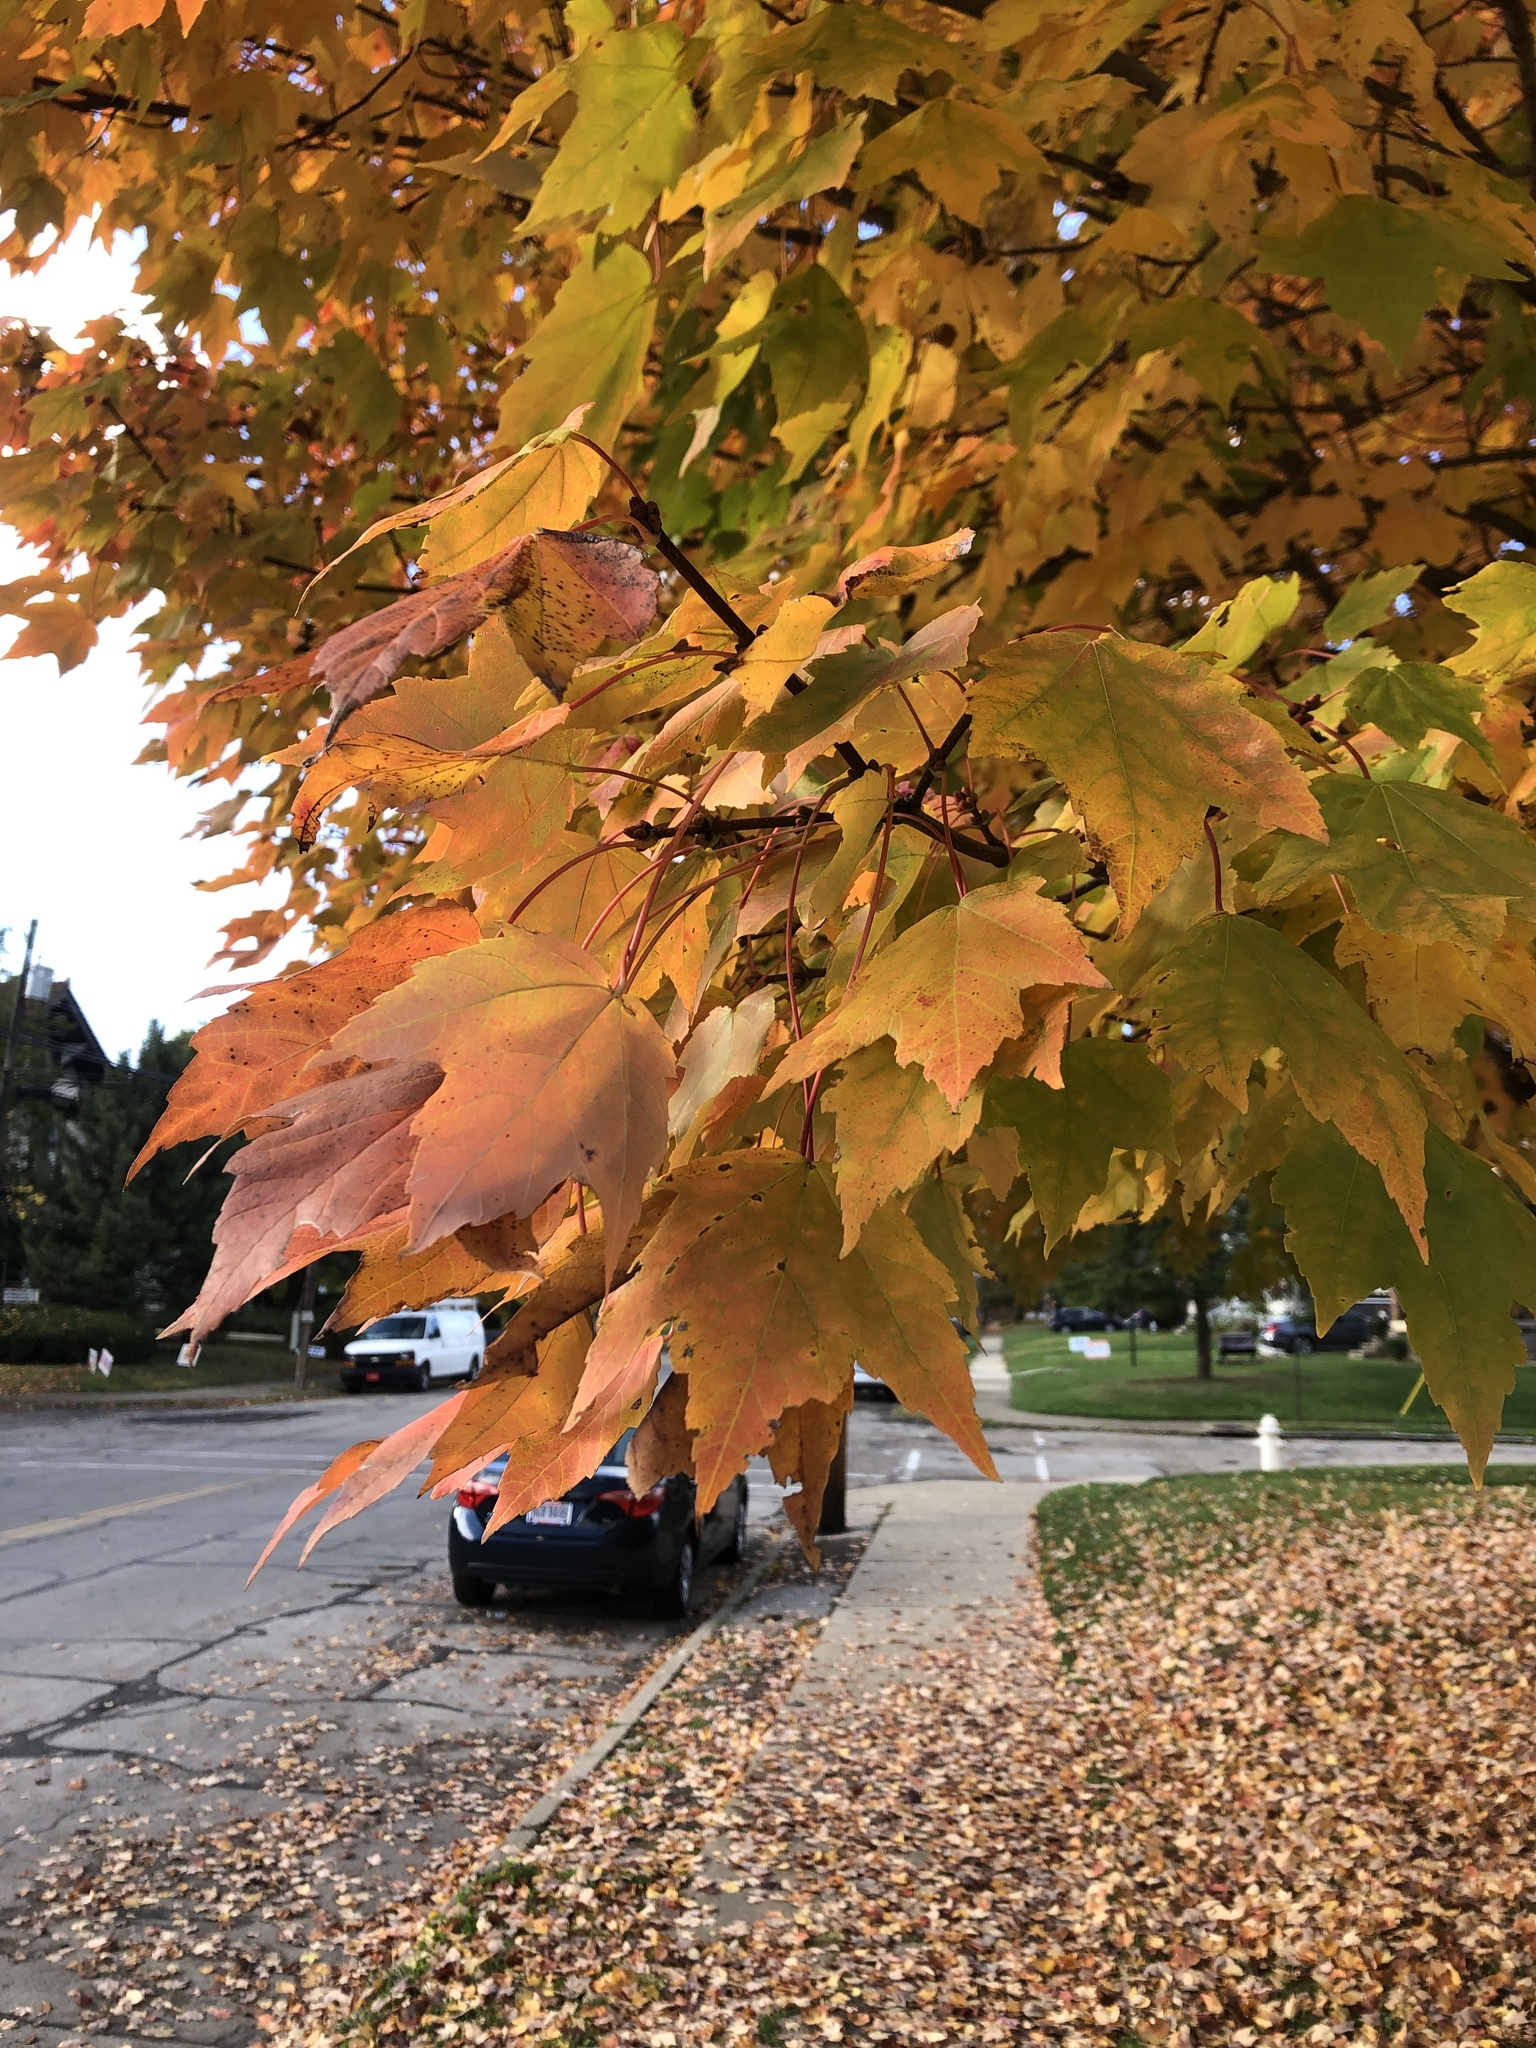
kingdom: Plantae
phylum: Tracheophyta
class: Magnoliopsida
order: Sapindales
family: Sapindaceae
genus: Acer
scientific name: Acer rubrum
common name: Red maple
